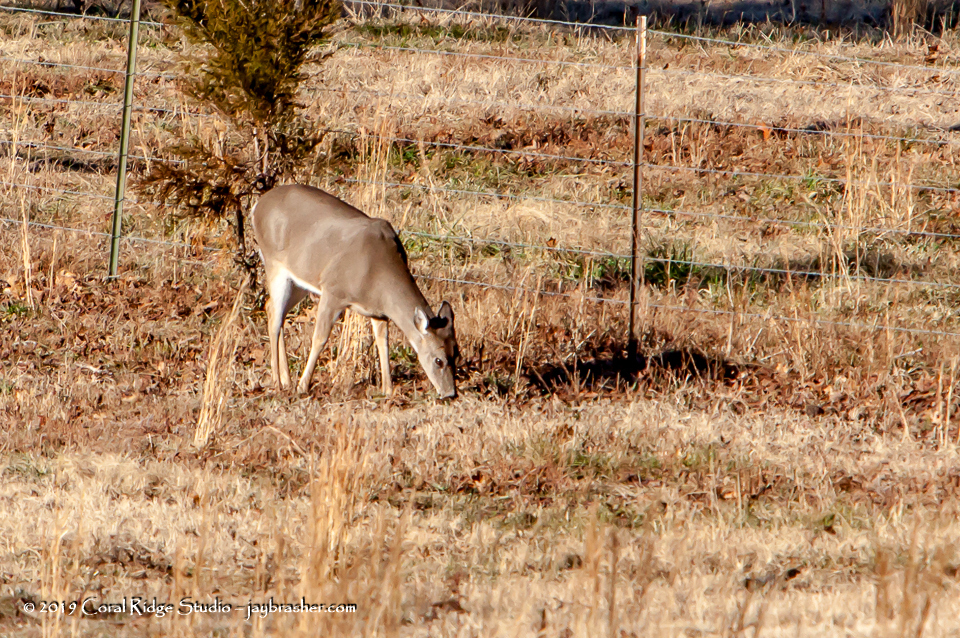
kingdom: Animalia
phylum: Chordata
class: Mammalia
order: Artiodactyla
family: Cervidae
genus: Odocoileus
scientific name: Odocoileus virginianus
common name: White-tailed deer
